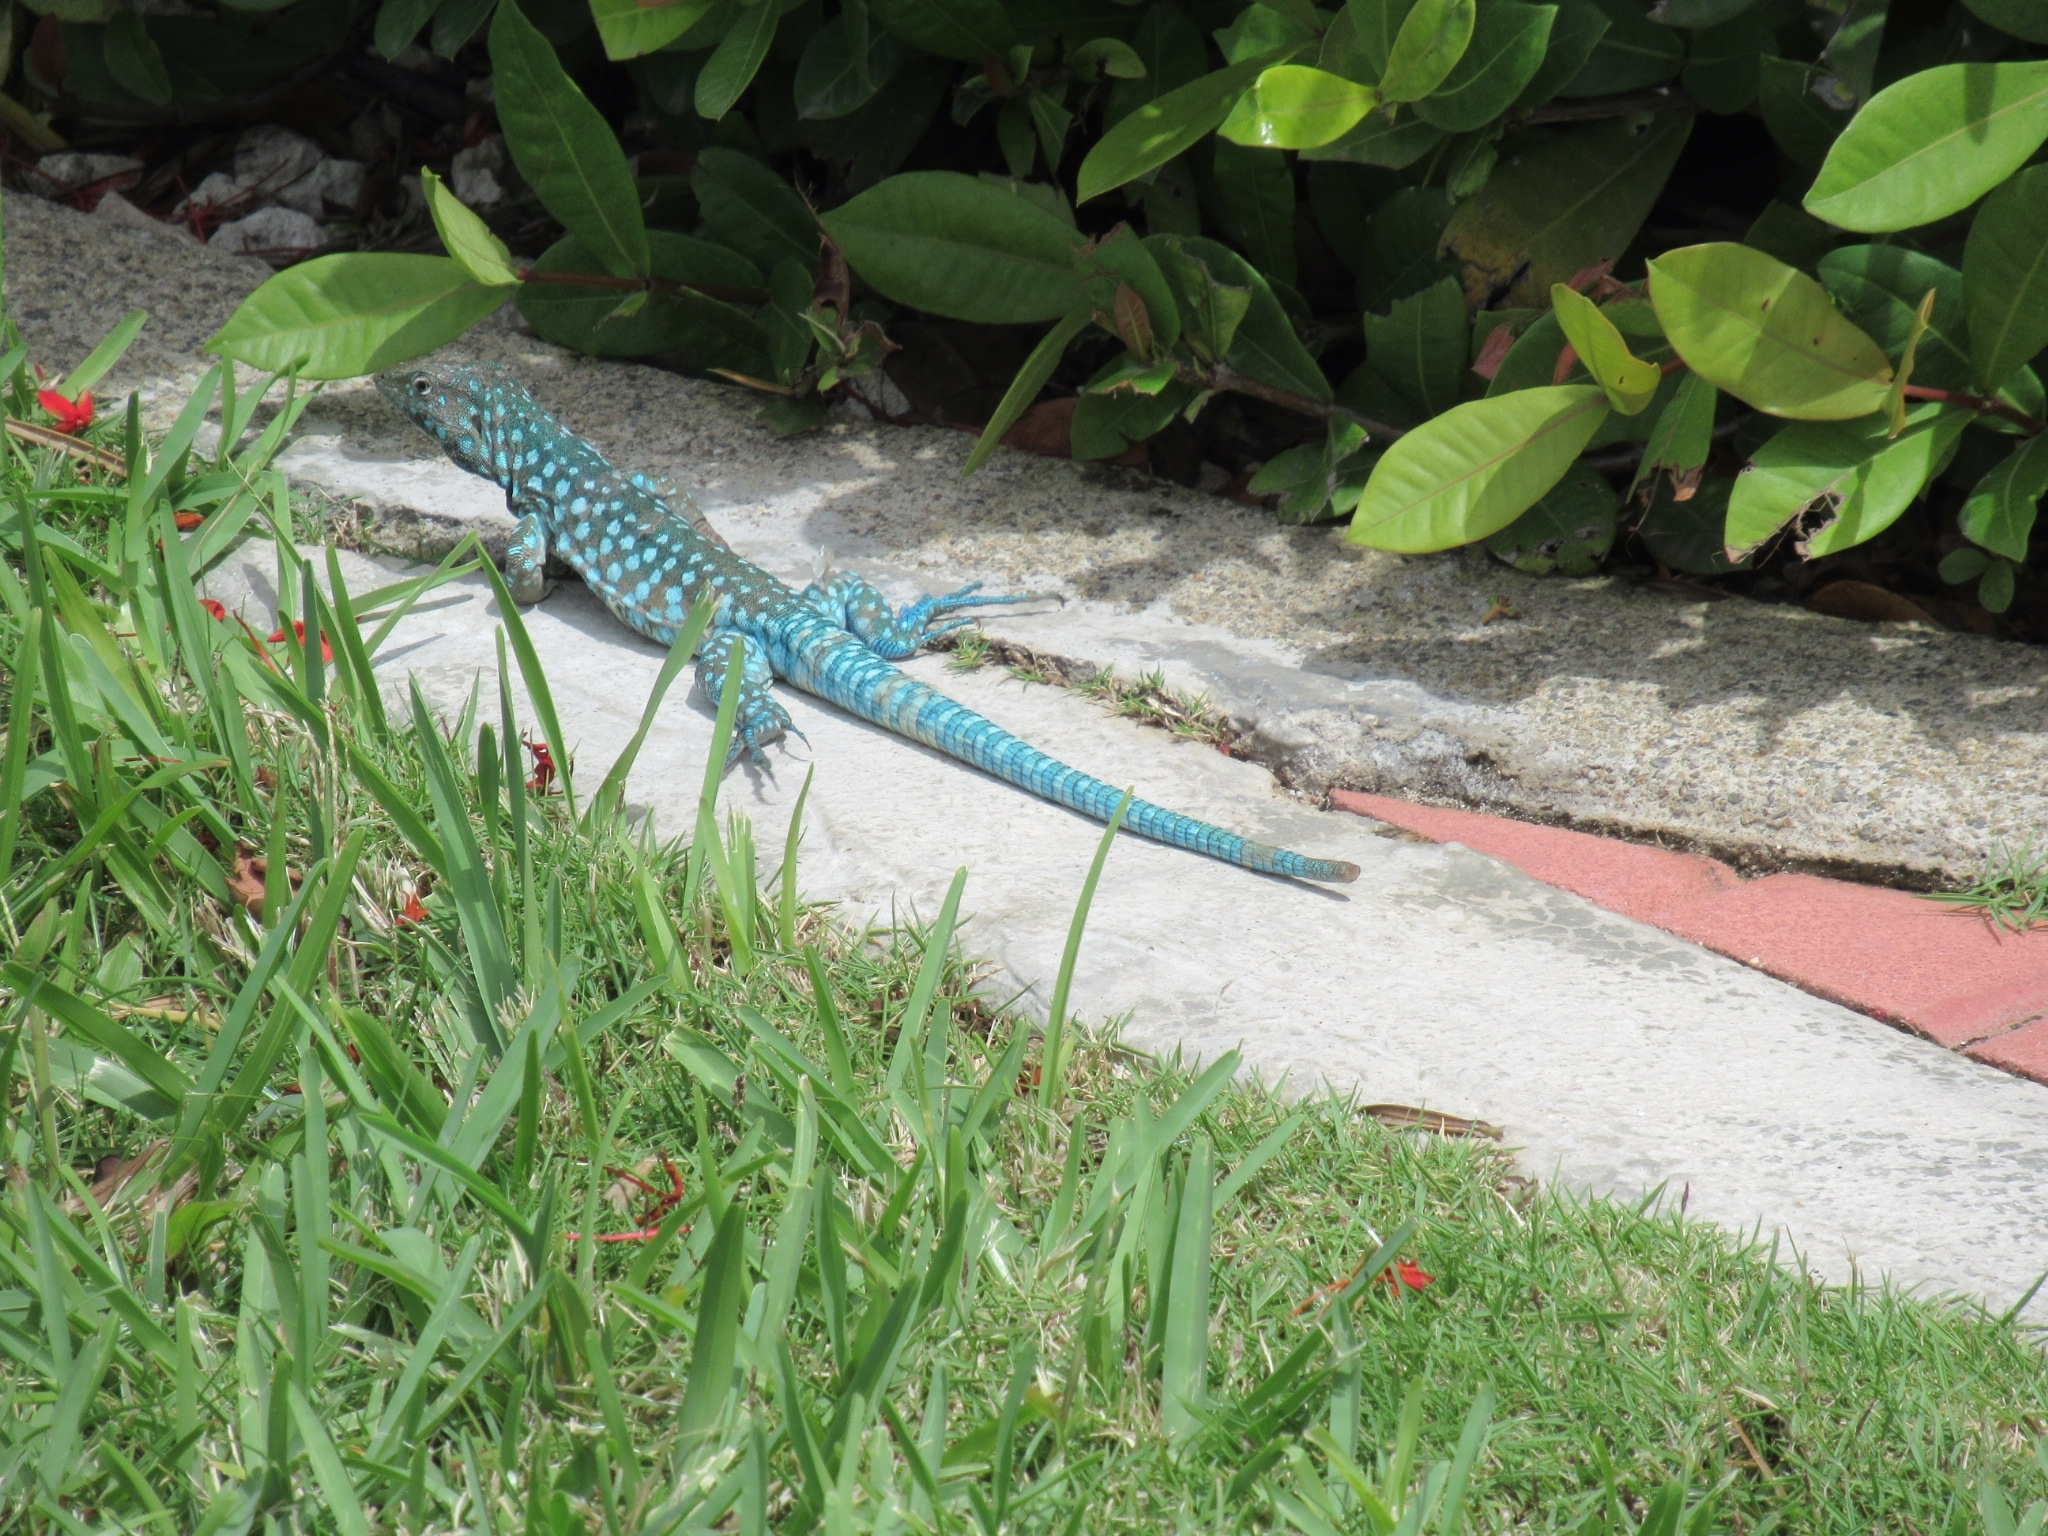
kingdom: Animalia
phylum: Chordata
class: Squamata
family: Teiidae
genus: Cnemidophorus
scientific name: Cnemidophorus arubensis
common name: Aruba whiptail
